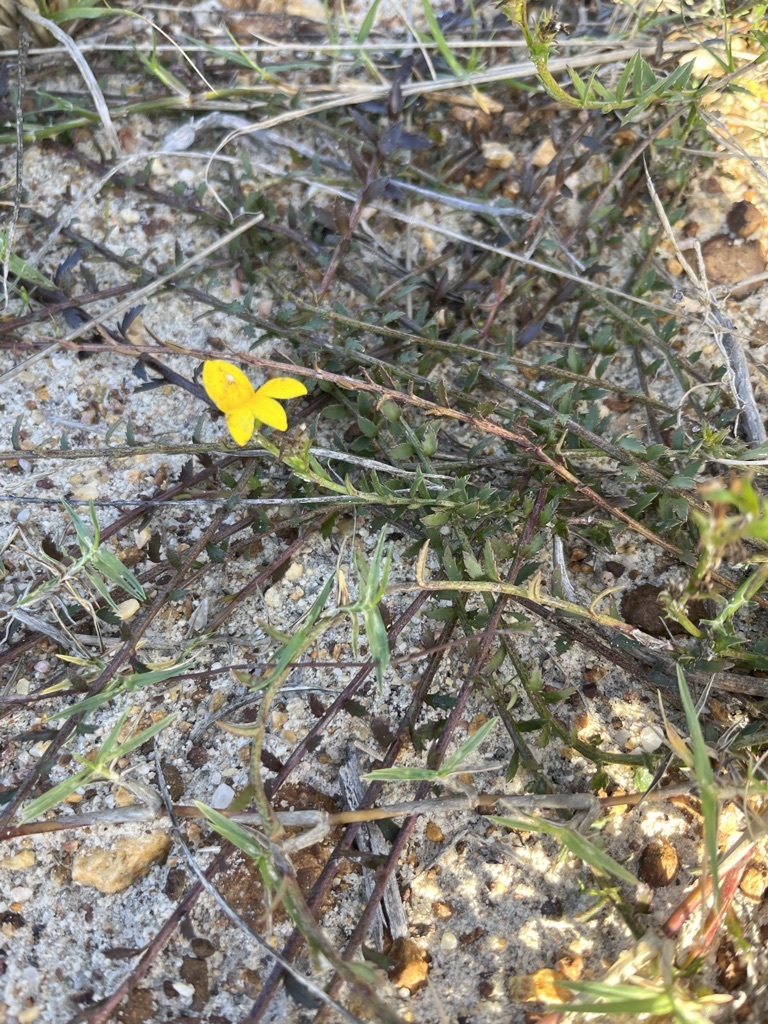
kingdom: Plantae
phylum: Tracheophyta
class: Magnoliopsida
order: Asterales
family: Campanulaceae
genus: Monopsis
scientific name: Monopsis lutea
